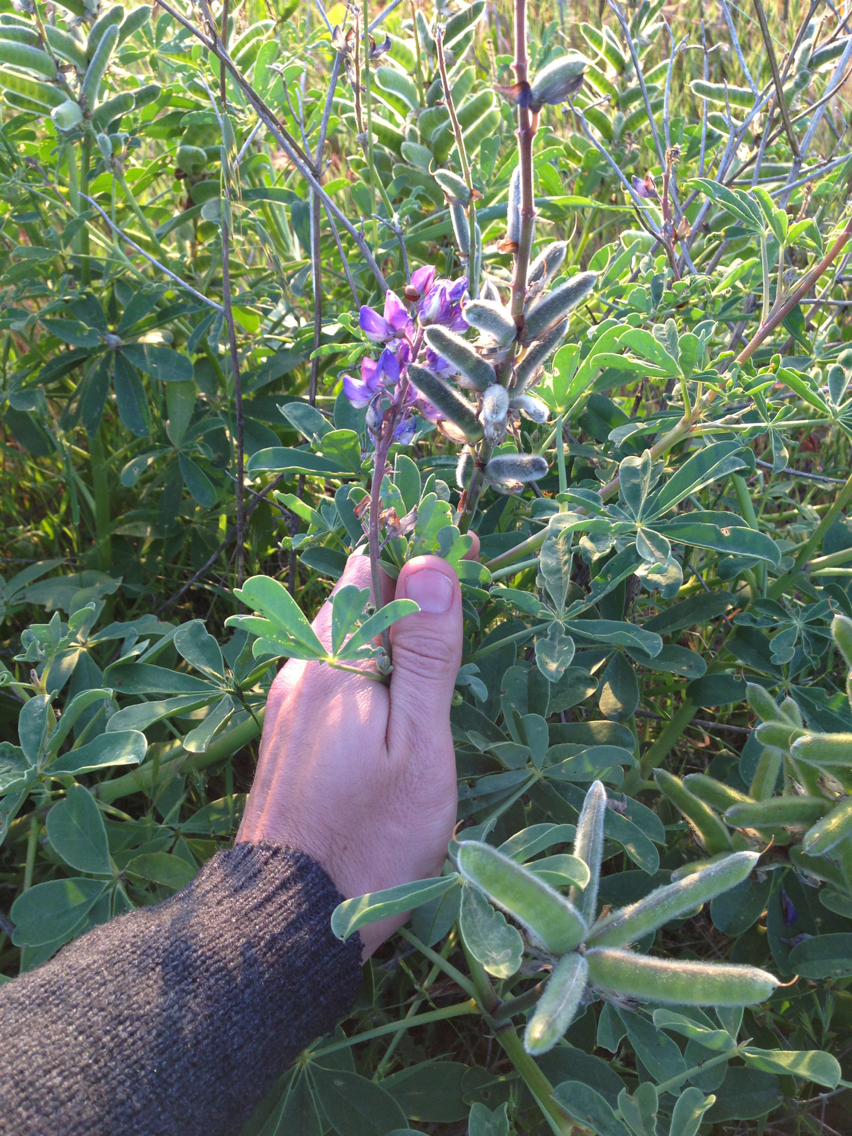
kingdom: Plantae
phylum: Tracheophyta
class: Magnoliopsida
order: Fabales
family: Fabaceae
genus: Lupinus
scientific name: Lupinus succulentus
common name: Arroyo lupine
